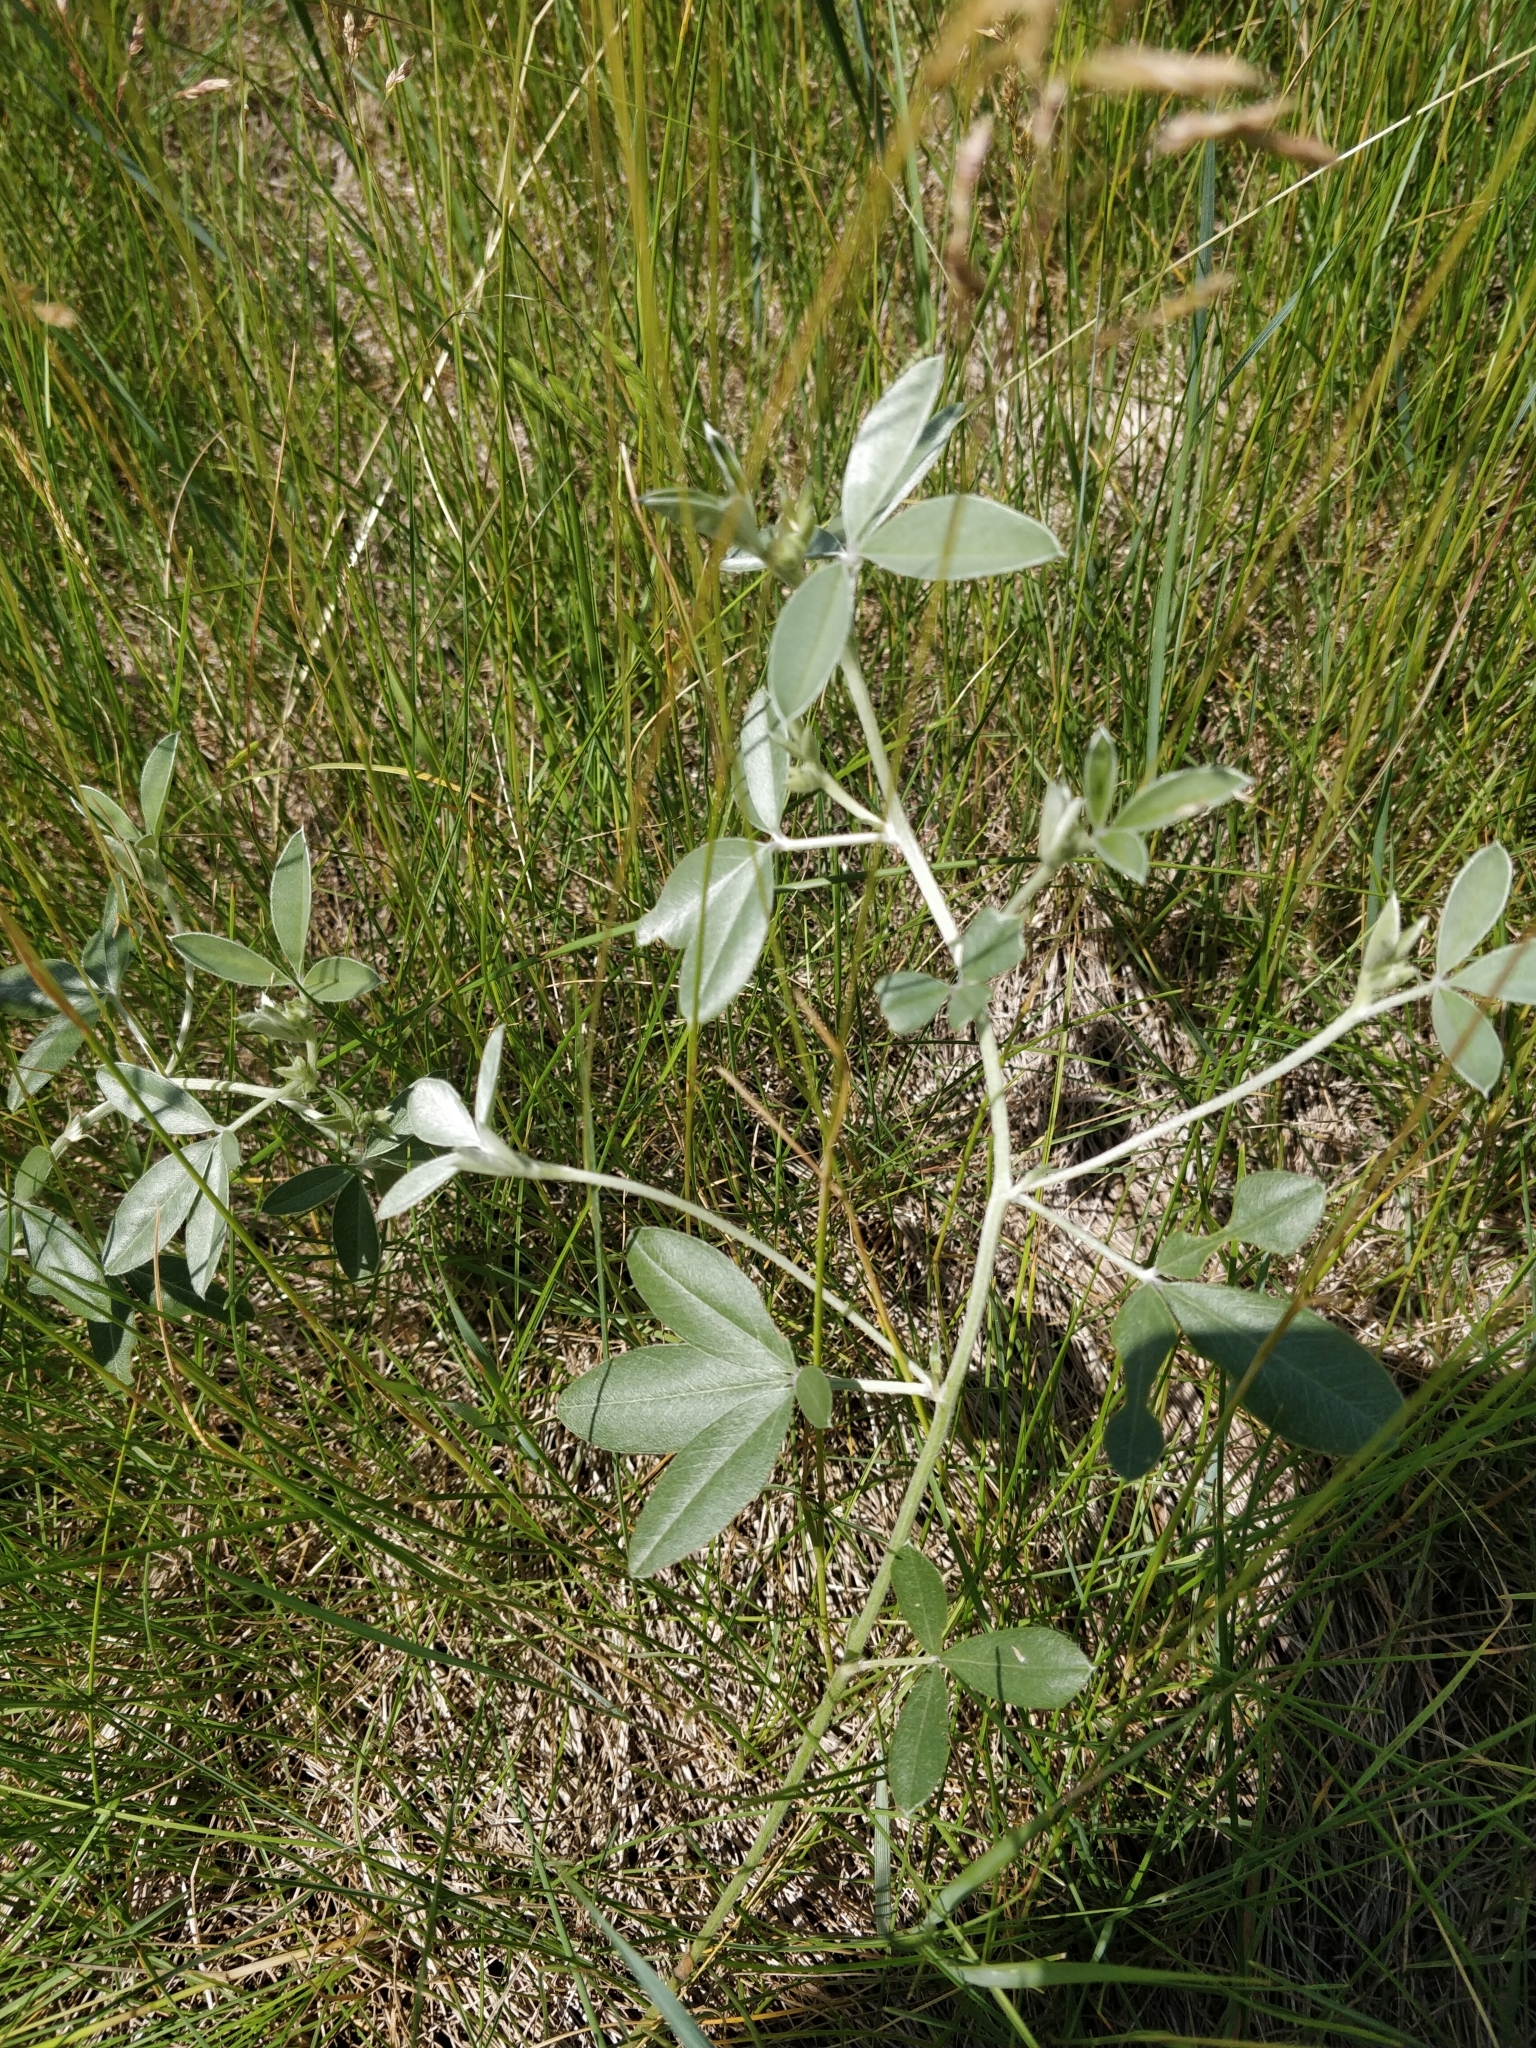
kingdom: Plantae
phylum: Tracheophyta
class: Magnoliopsida
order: Fabales
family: Fabaceae
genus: Pediomelum
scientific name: Pediomelum argophyllum
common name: Silver-leaved indian breadroot
